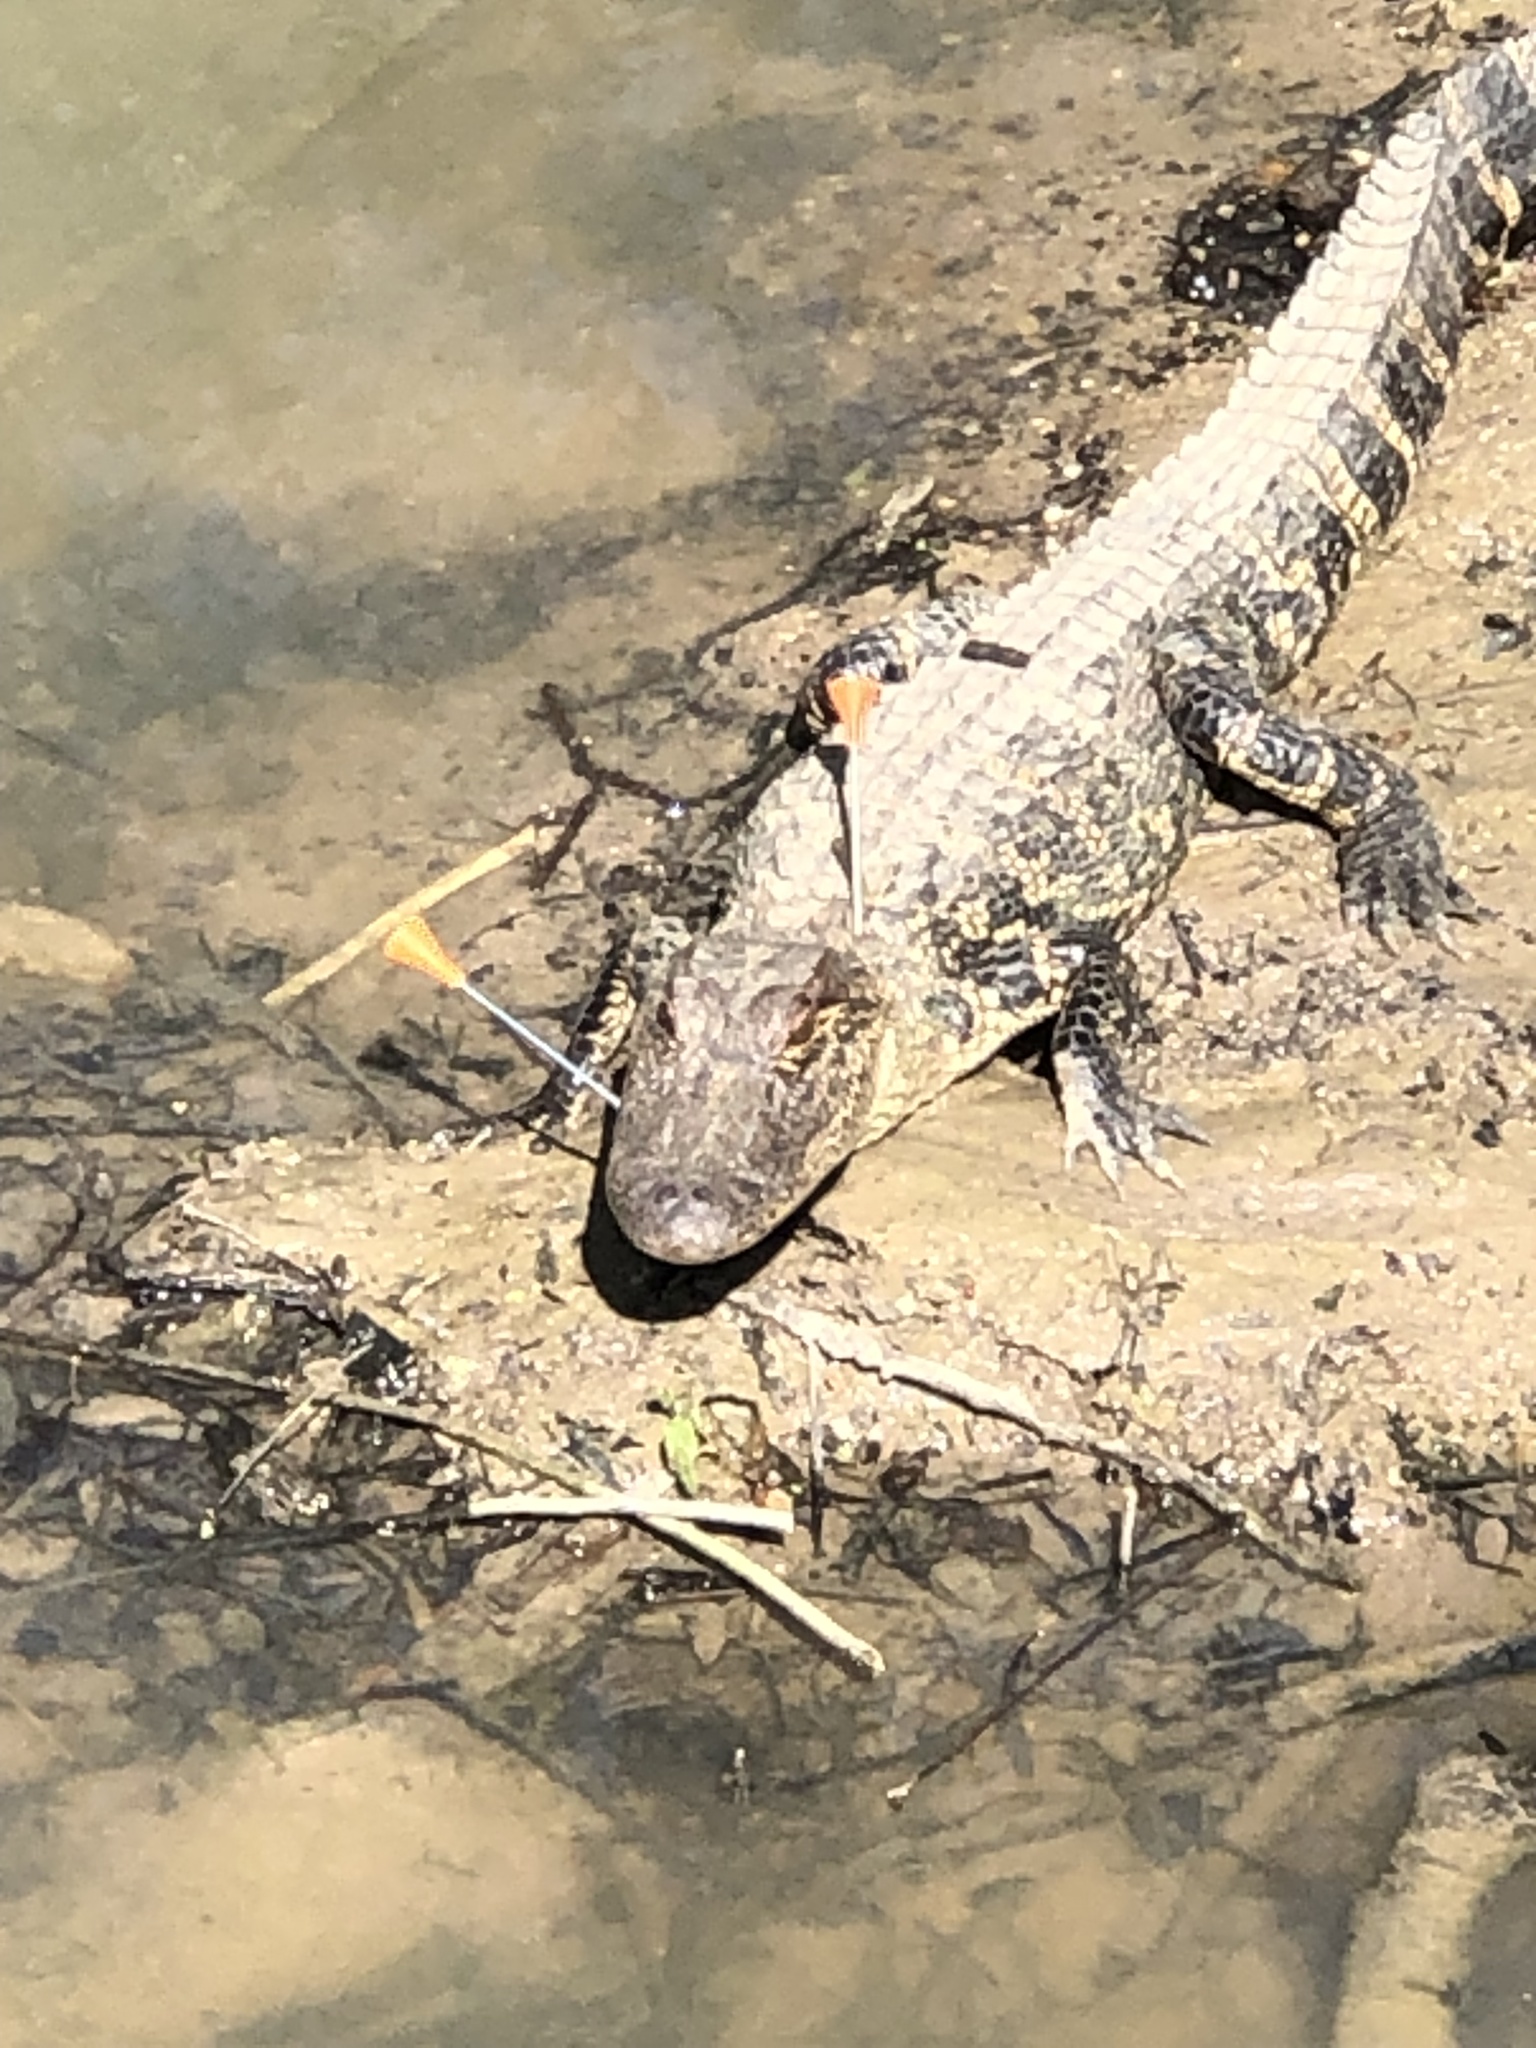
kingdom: Animalia
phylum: Chordata
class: Crocodylia
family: Alligatoridae
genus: Alligator
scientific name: Alligator mississippiensis
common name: American alligator
